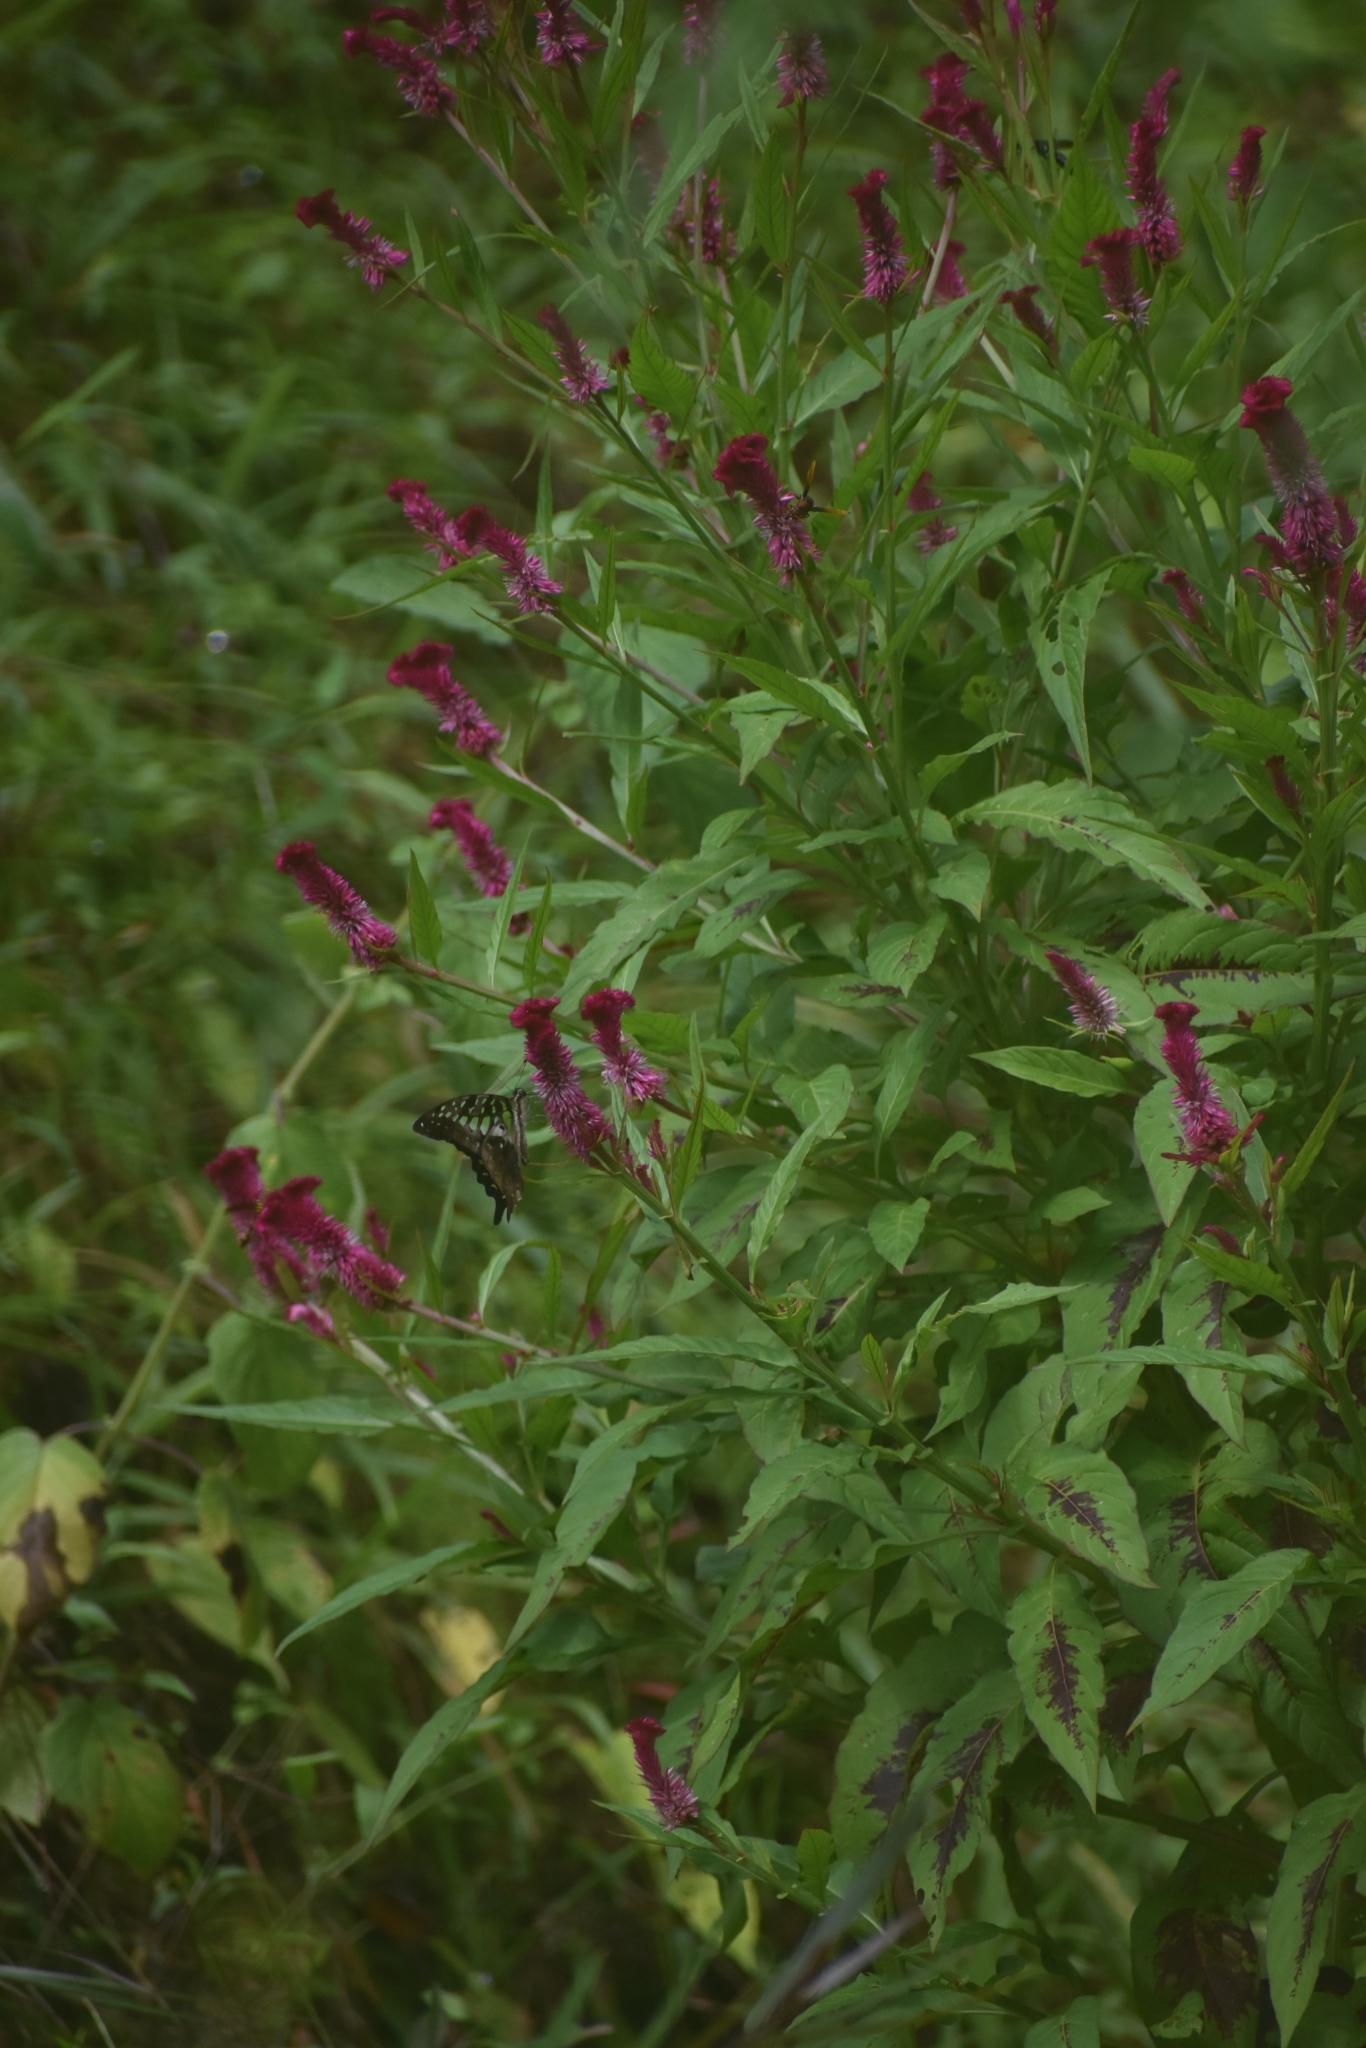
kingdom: Animalia
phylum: Arthropoda
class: Insecta
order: Lepidoptera
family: Papilionidae
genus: Graphium
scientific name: Graphium agamemnon
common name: Tailed jay
